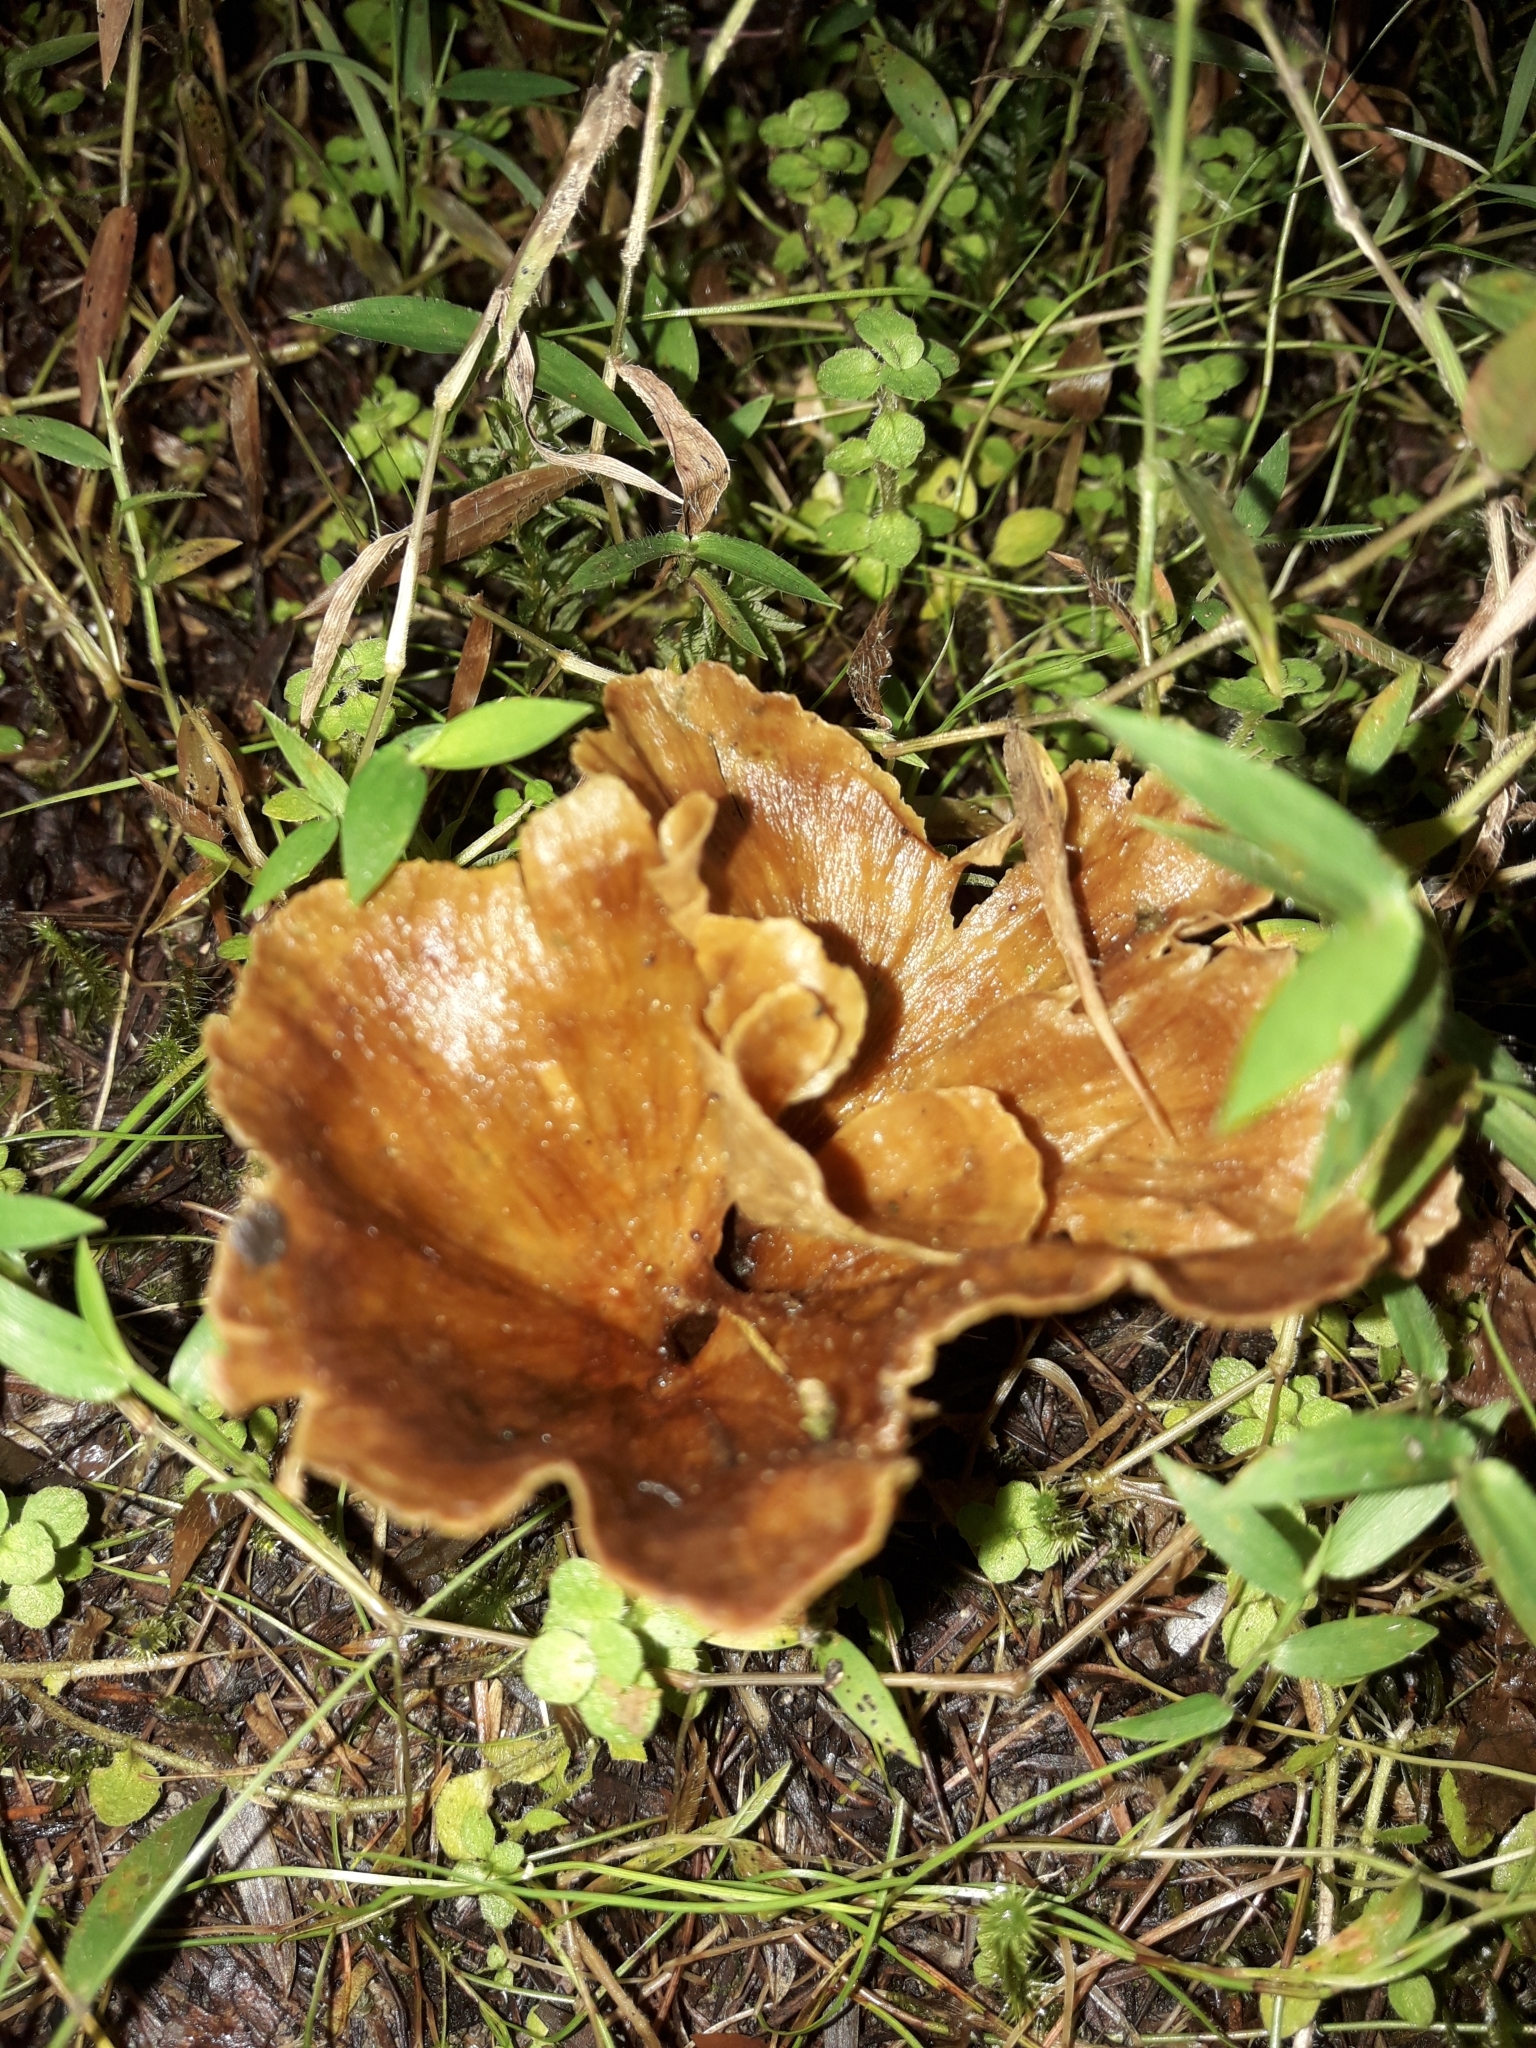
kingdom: Fungi
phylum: Basidiomycota
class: Agaricomycetes
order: Polyporales
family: Podoscyphaceae
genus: Podoscypha
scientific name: Podoscypha petalodes
